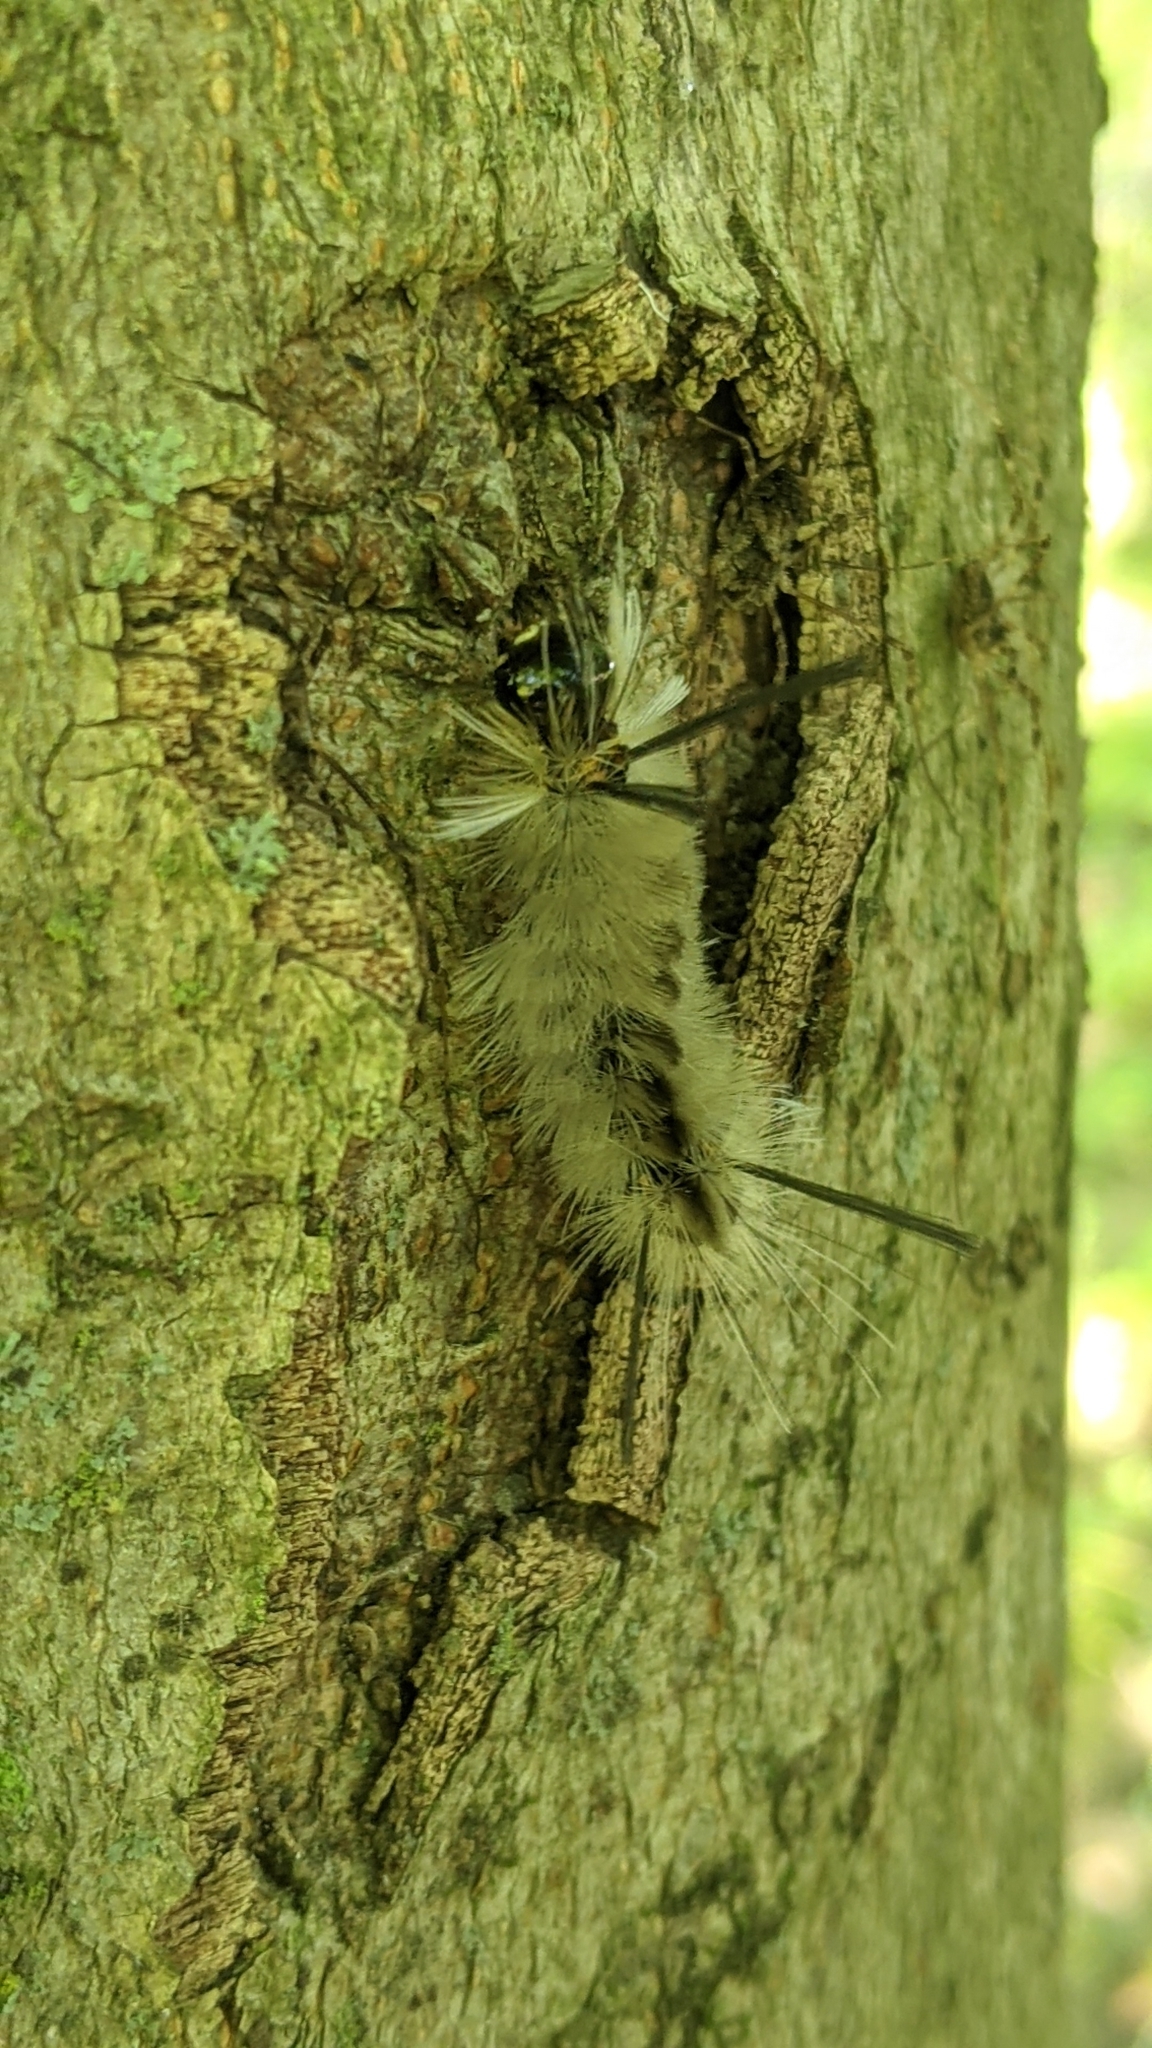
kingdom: Animalia
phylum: Arthropoda
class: Insecta
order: Lepidoptera
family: Erebidae
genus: Halysidota
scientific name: Halysidota tessellaris
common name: Banded tussock moth
